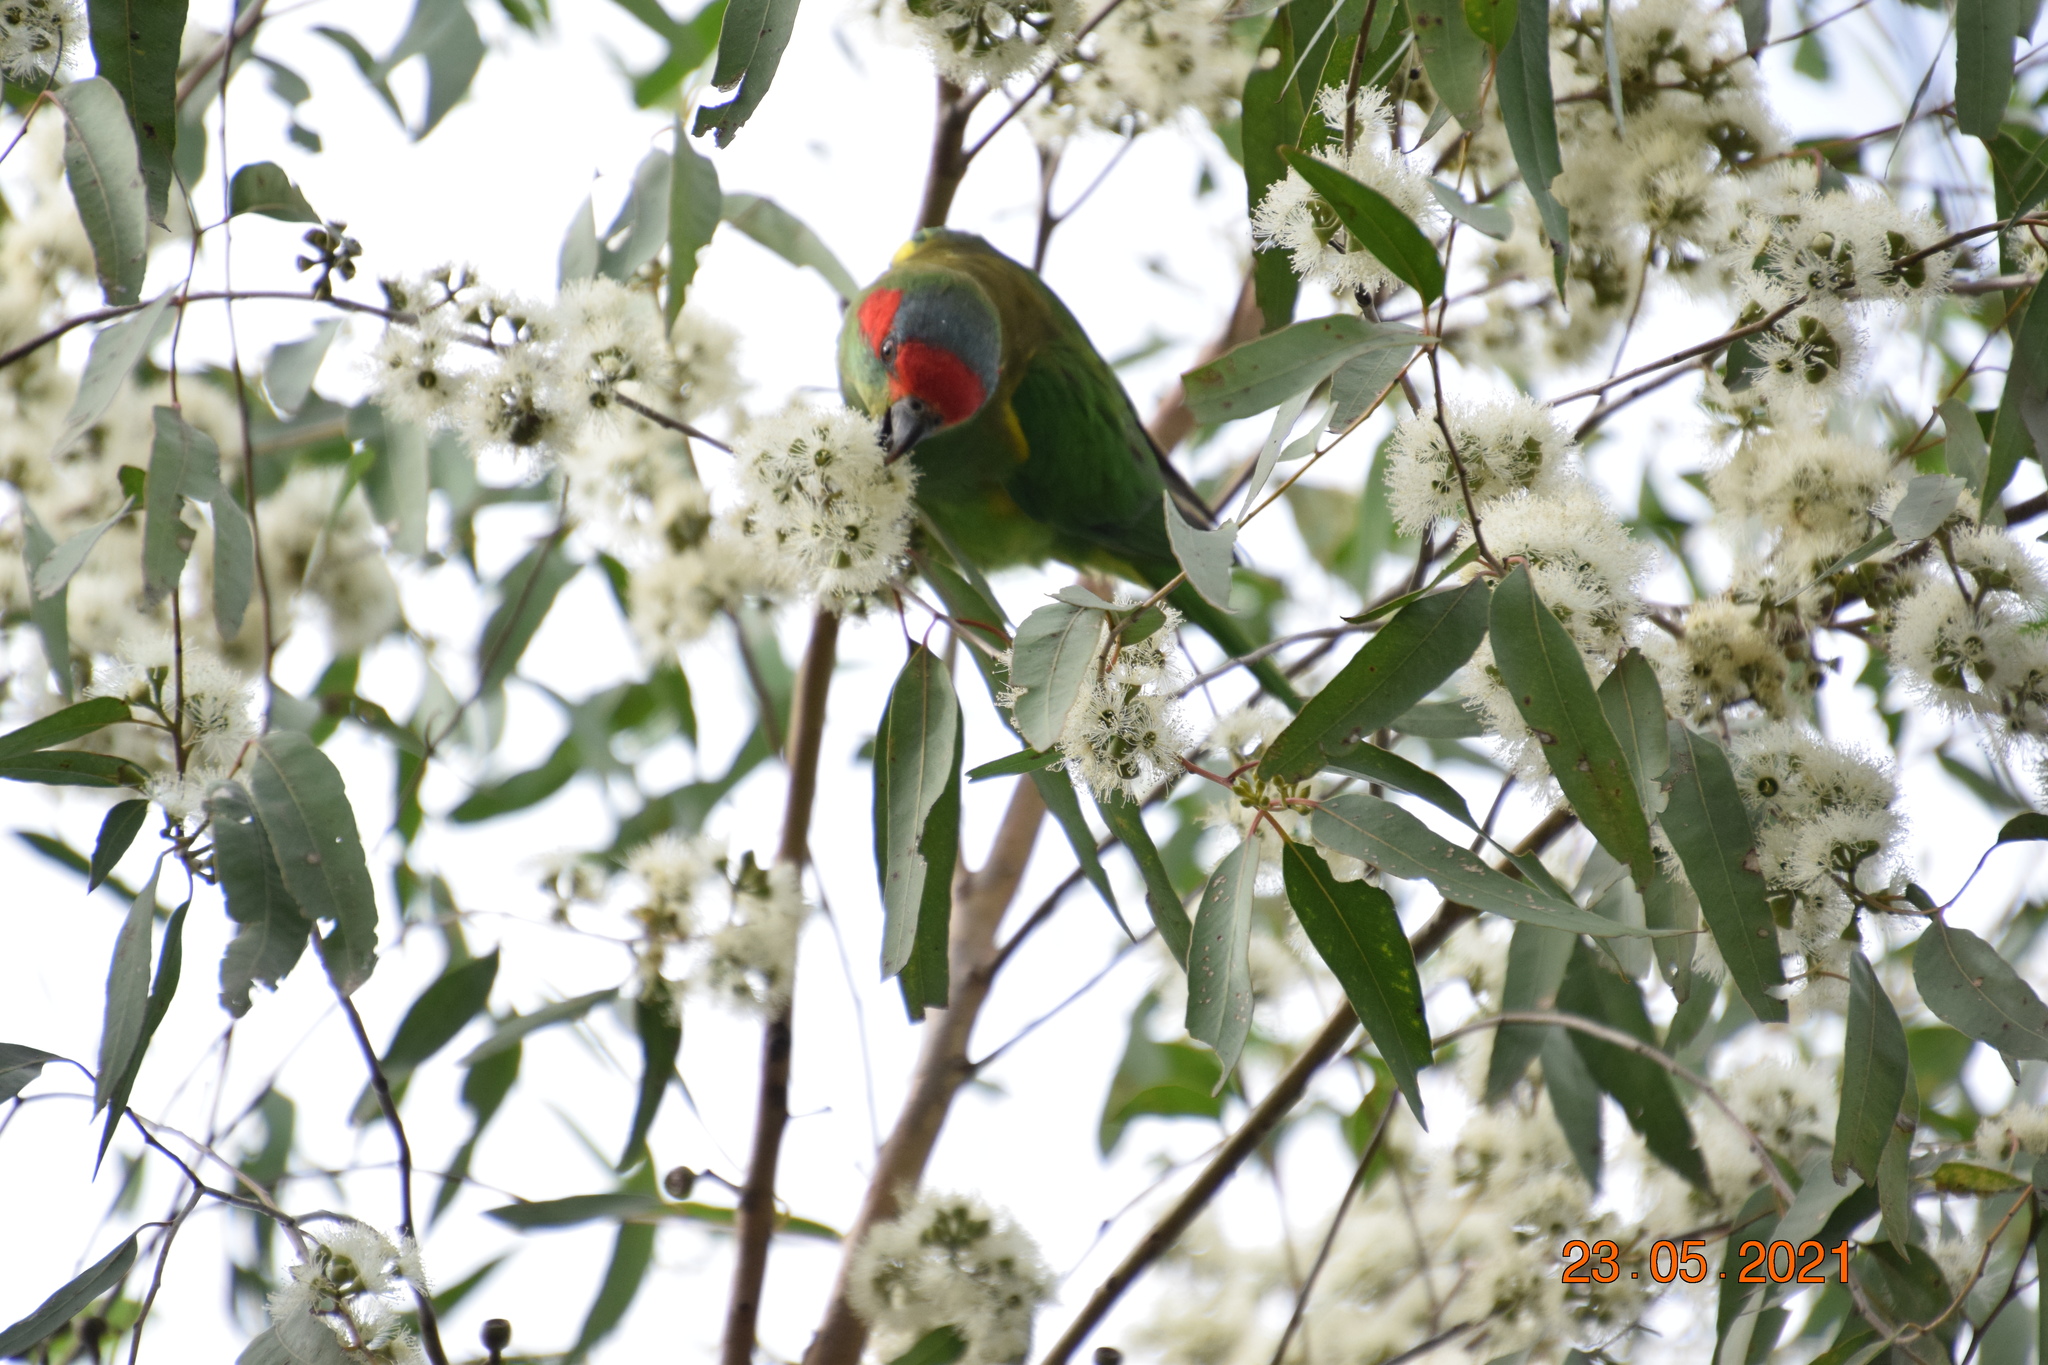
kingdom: Animalia
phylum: Chordata
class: Aves
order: Psittaciformes
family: Psittacidae
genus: Glossopsitta
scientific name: Glossopsitta concinna
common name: Musk lorikeet
